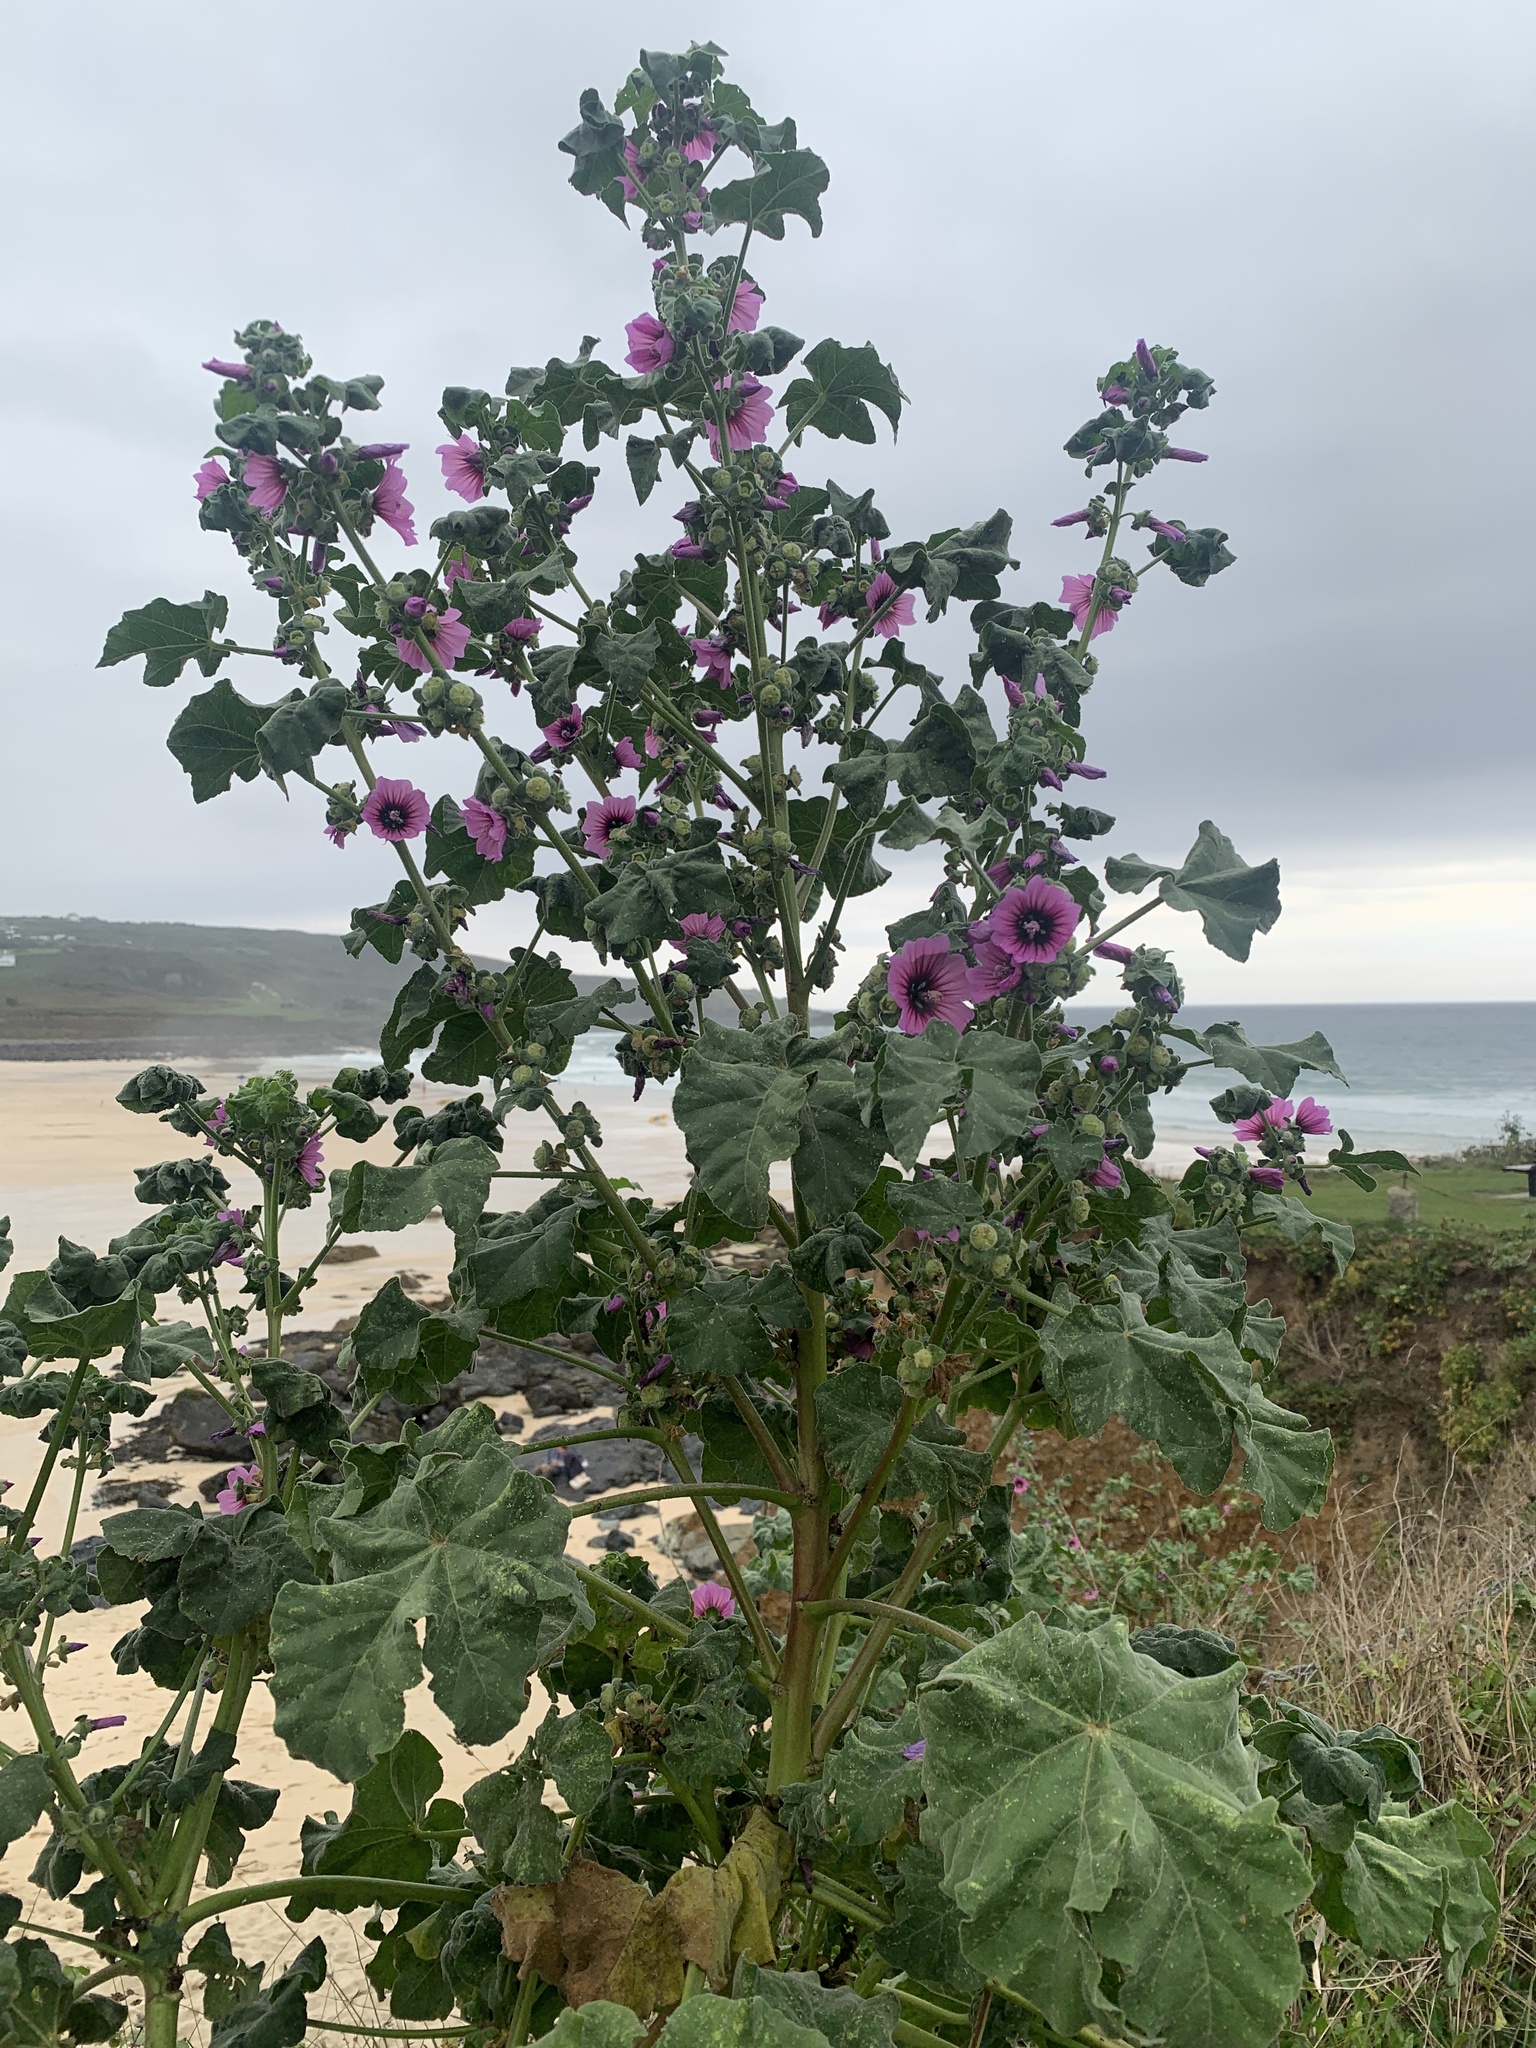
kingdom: Plantae
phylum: Tracheophyta
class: Magnoliopsida
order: Malvales
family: Malvaceae
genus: Malva
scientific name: Malva arborea
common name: Tree mallow
